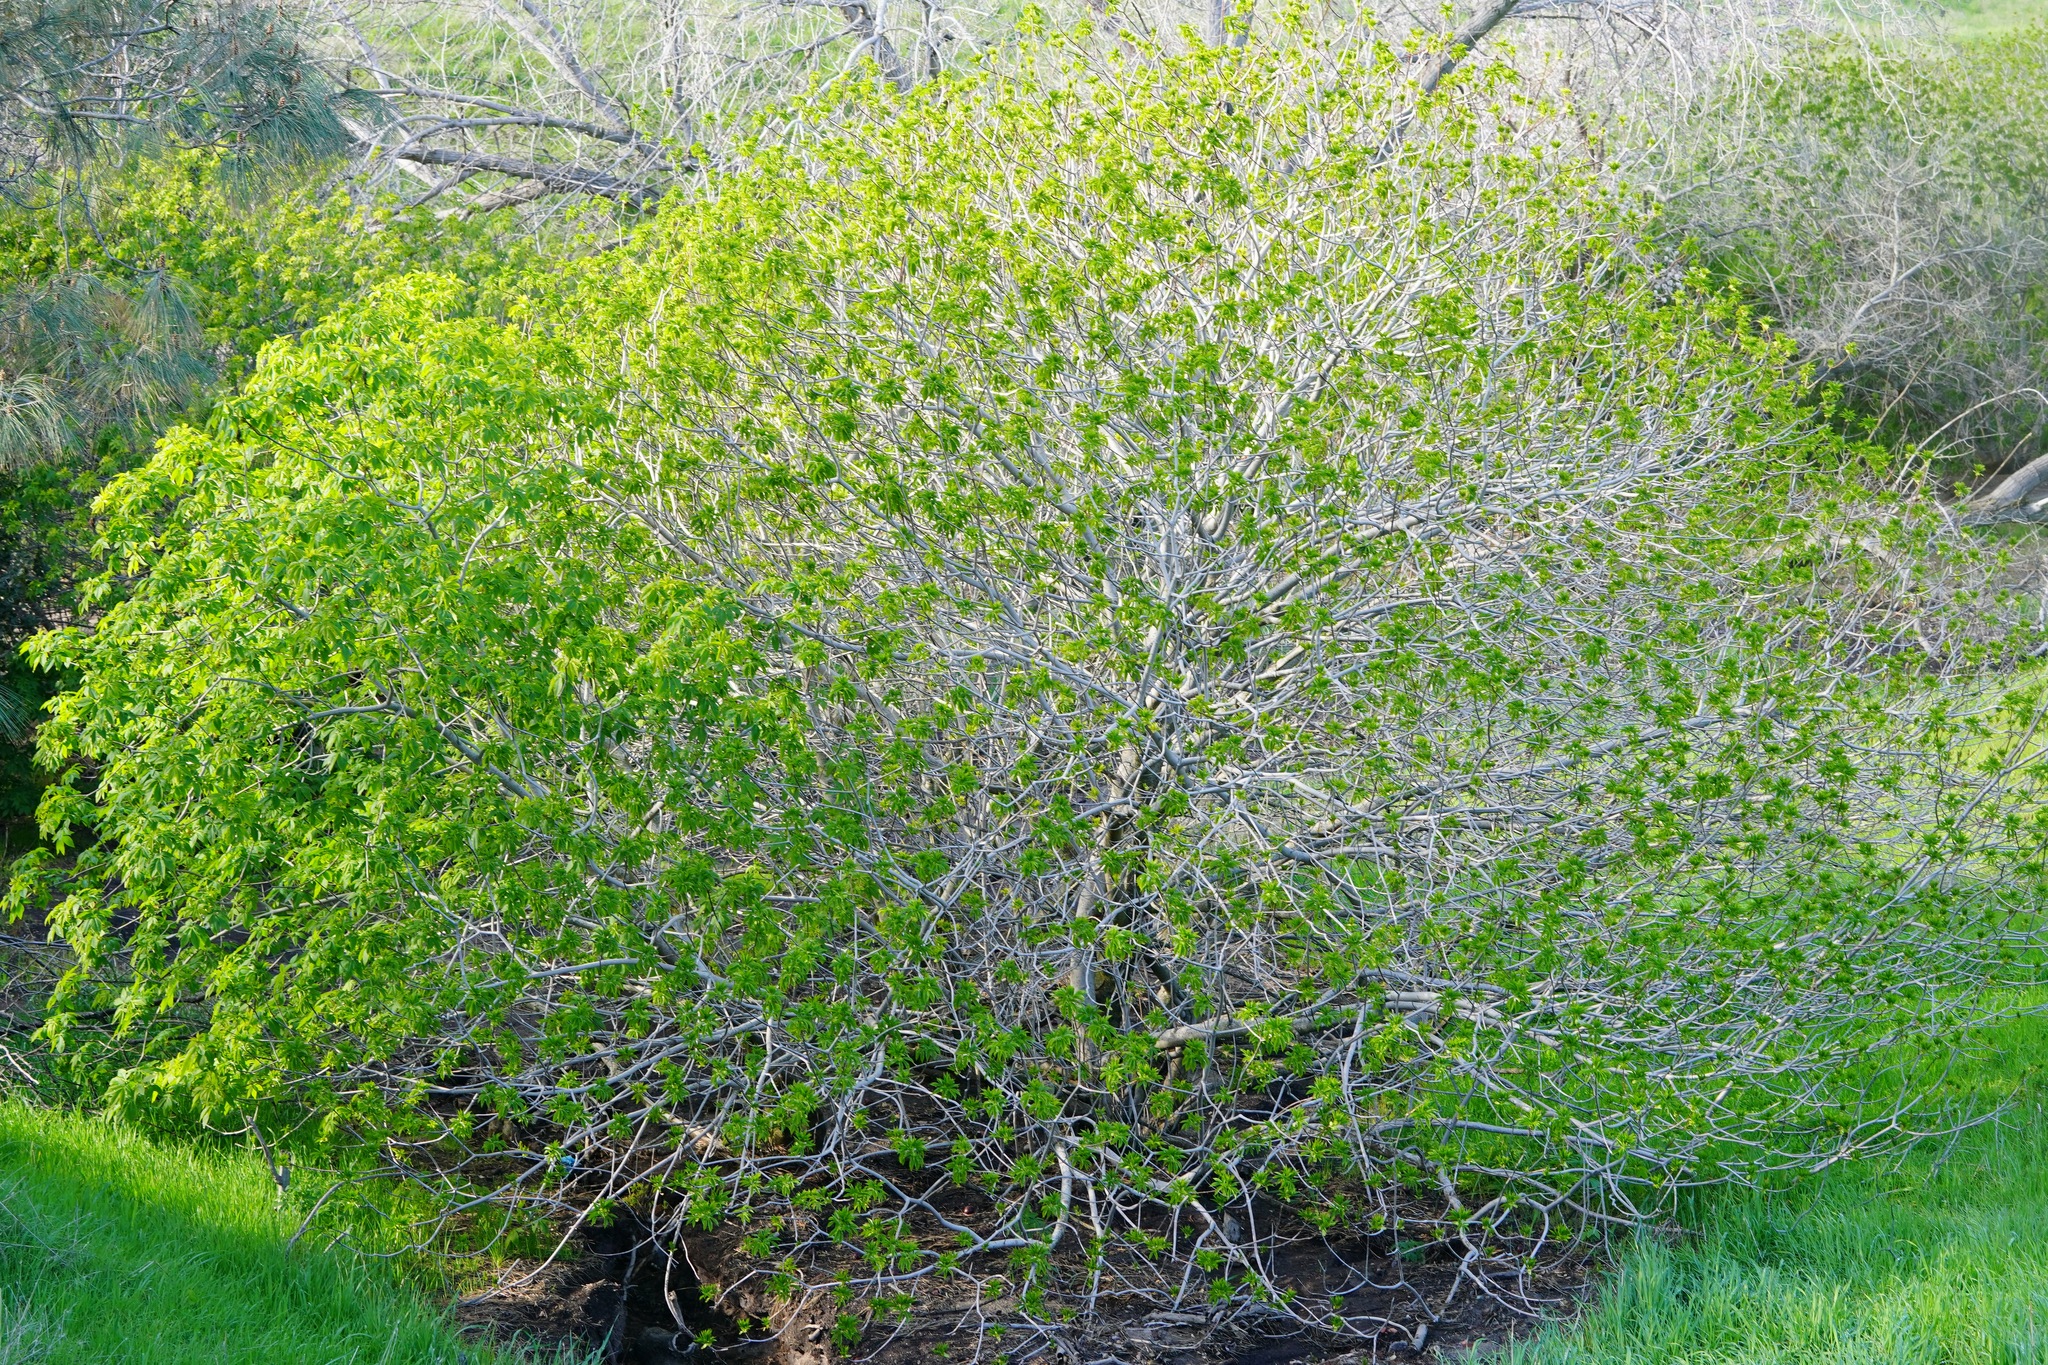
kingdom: Plantae
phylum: Tracheophyta
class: Magnoliopsida
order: Sapindales
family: Sapindaceae
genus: Aesculus
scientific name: Aesculus californica
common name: California buckeye
